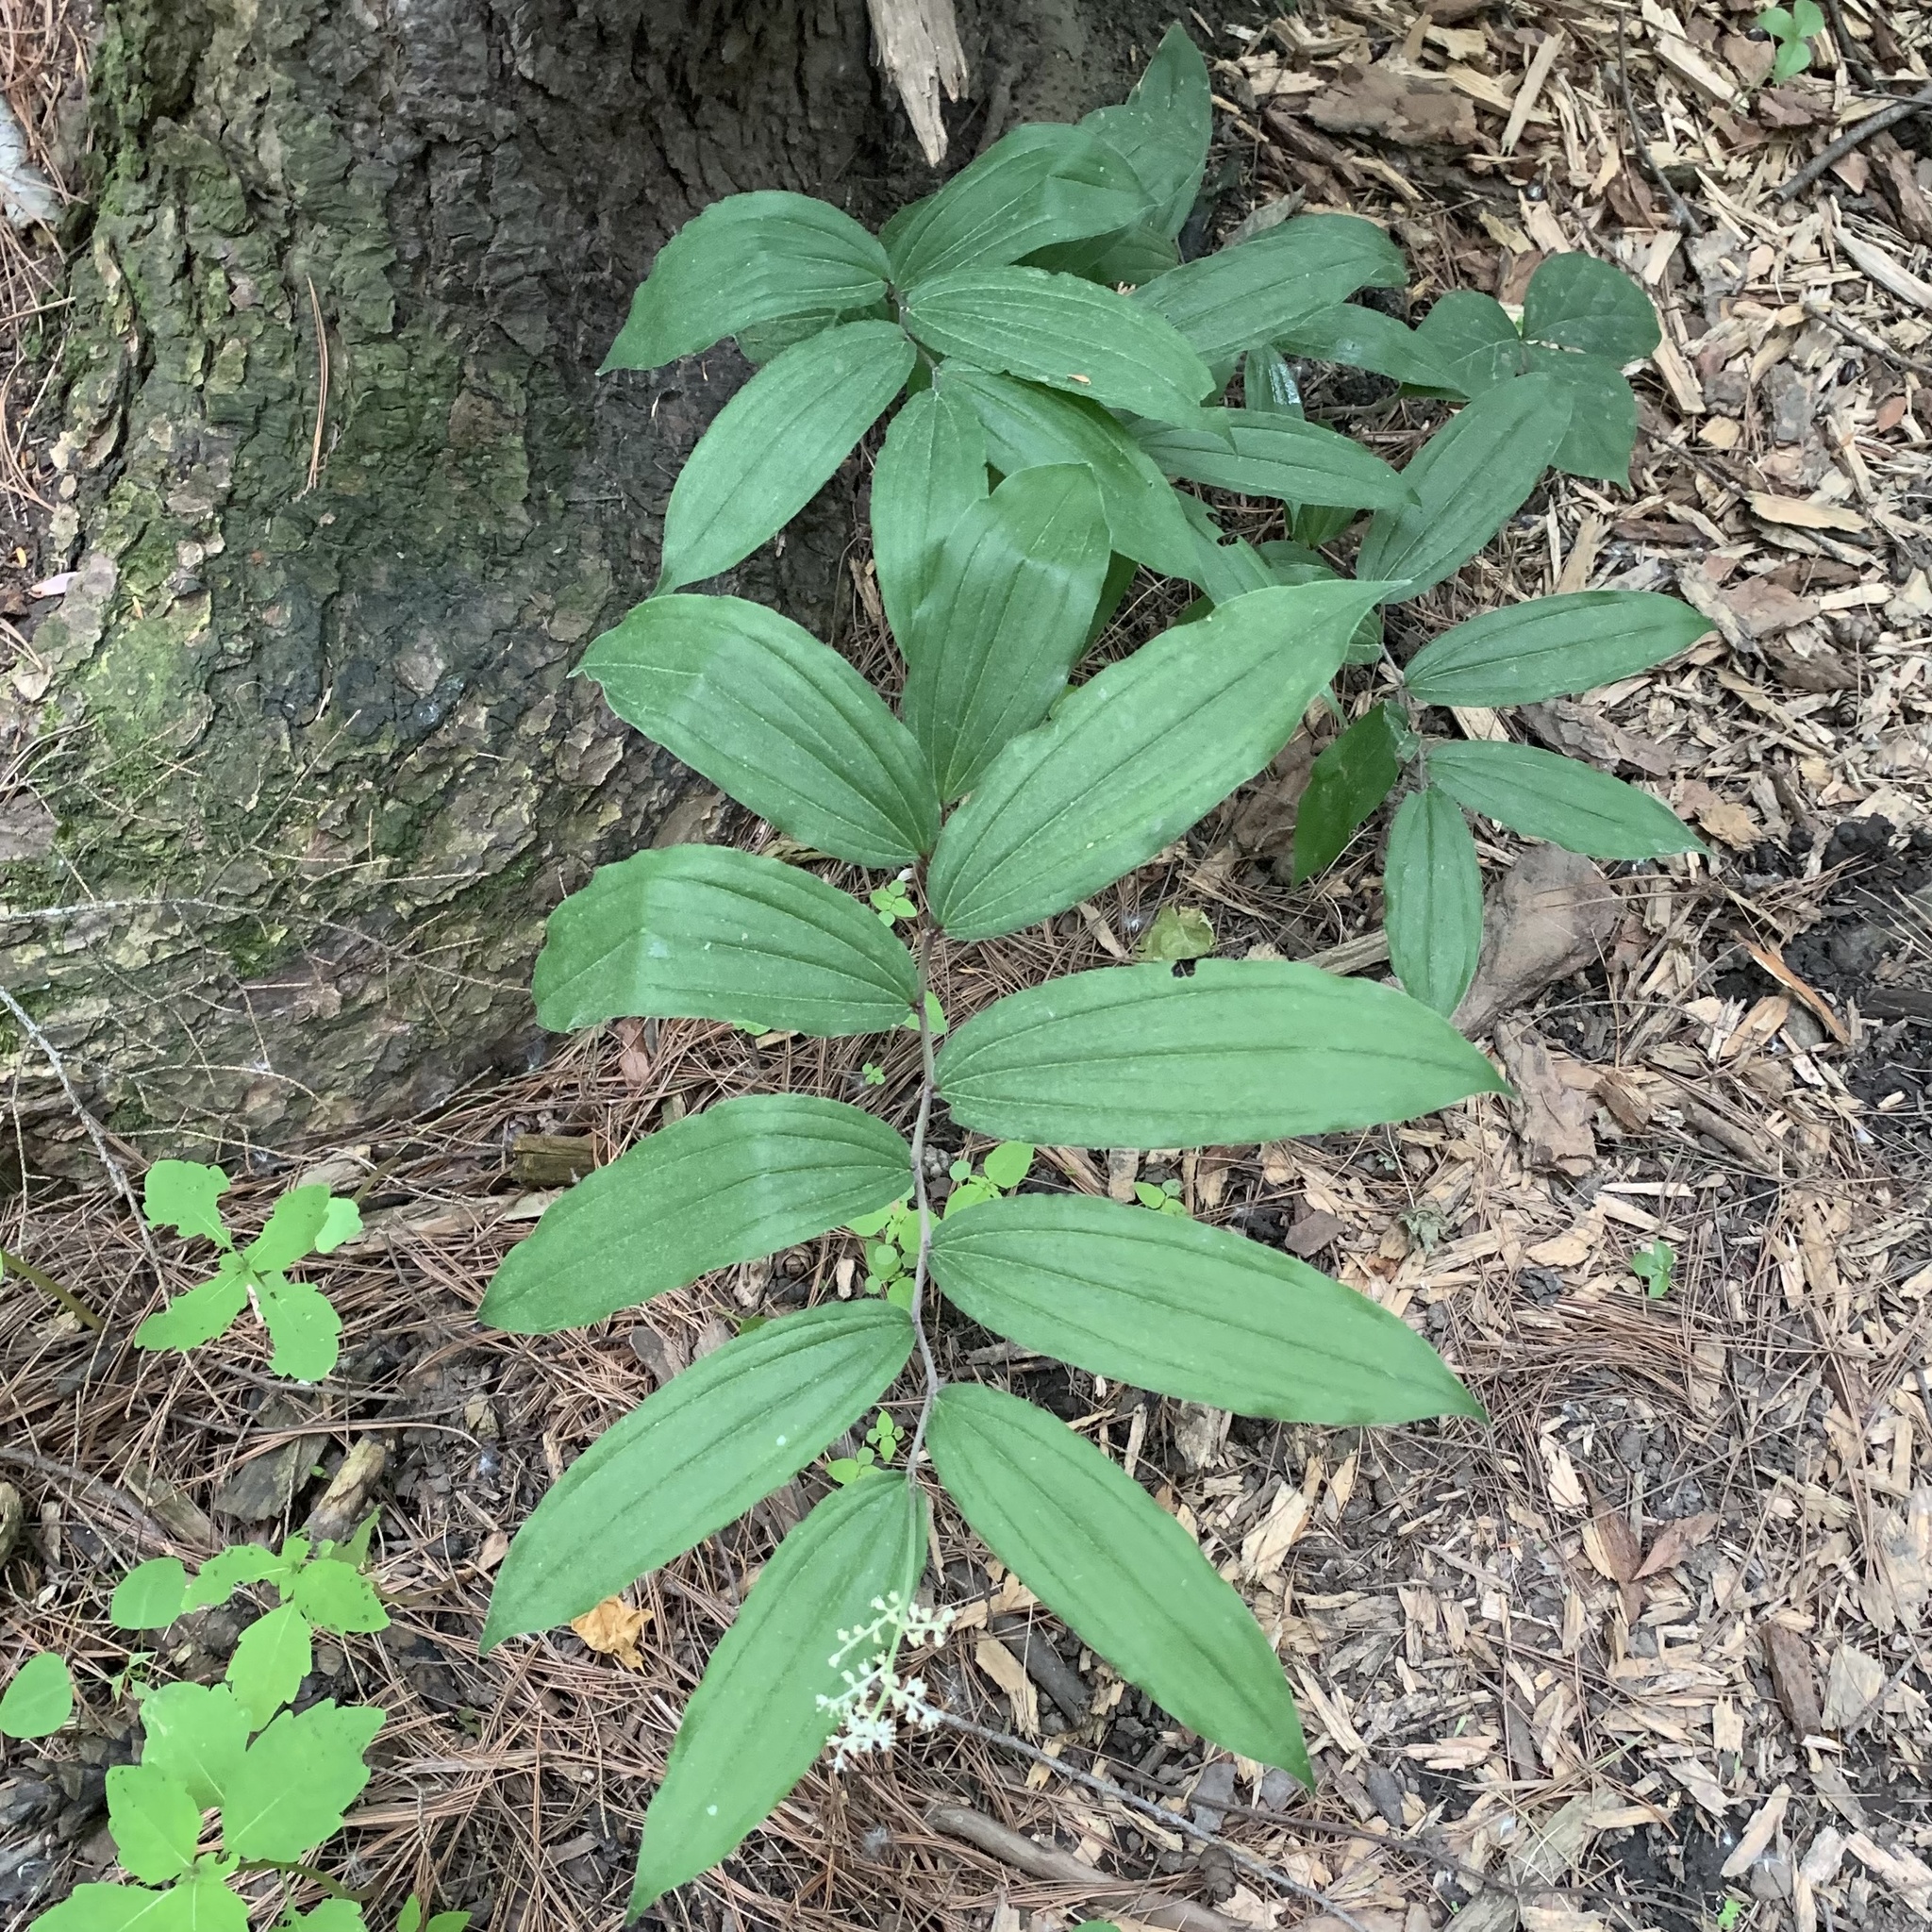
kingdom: Plantae
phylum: Tracheophyta
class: Liliopsida
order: Asparagales
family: Asparagaceae
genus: Maianthemum
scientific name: Maianthemum racemosum
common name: False spikenard
